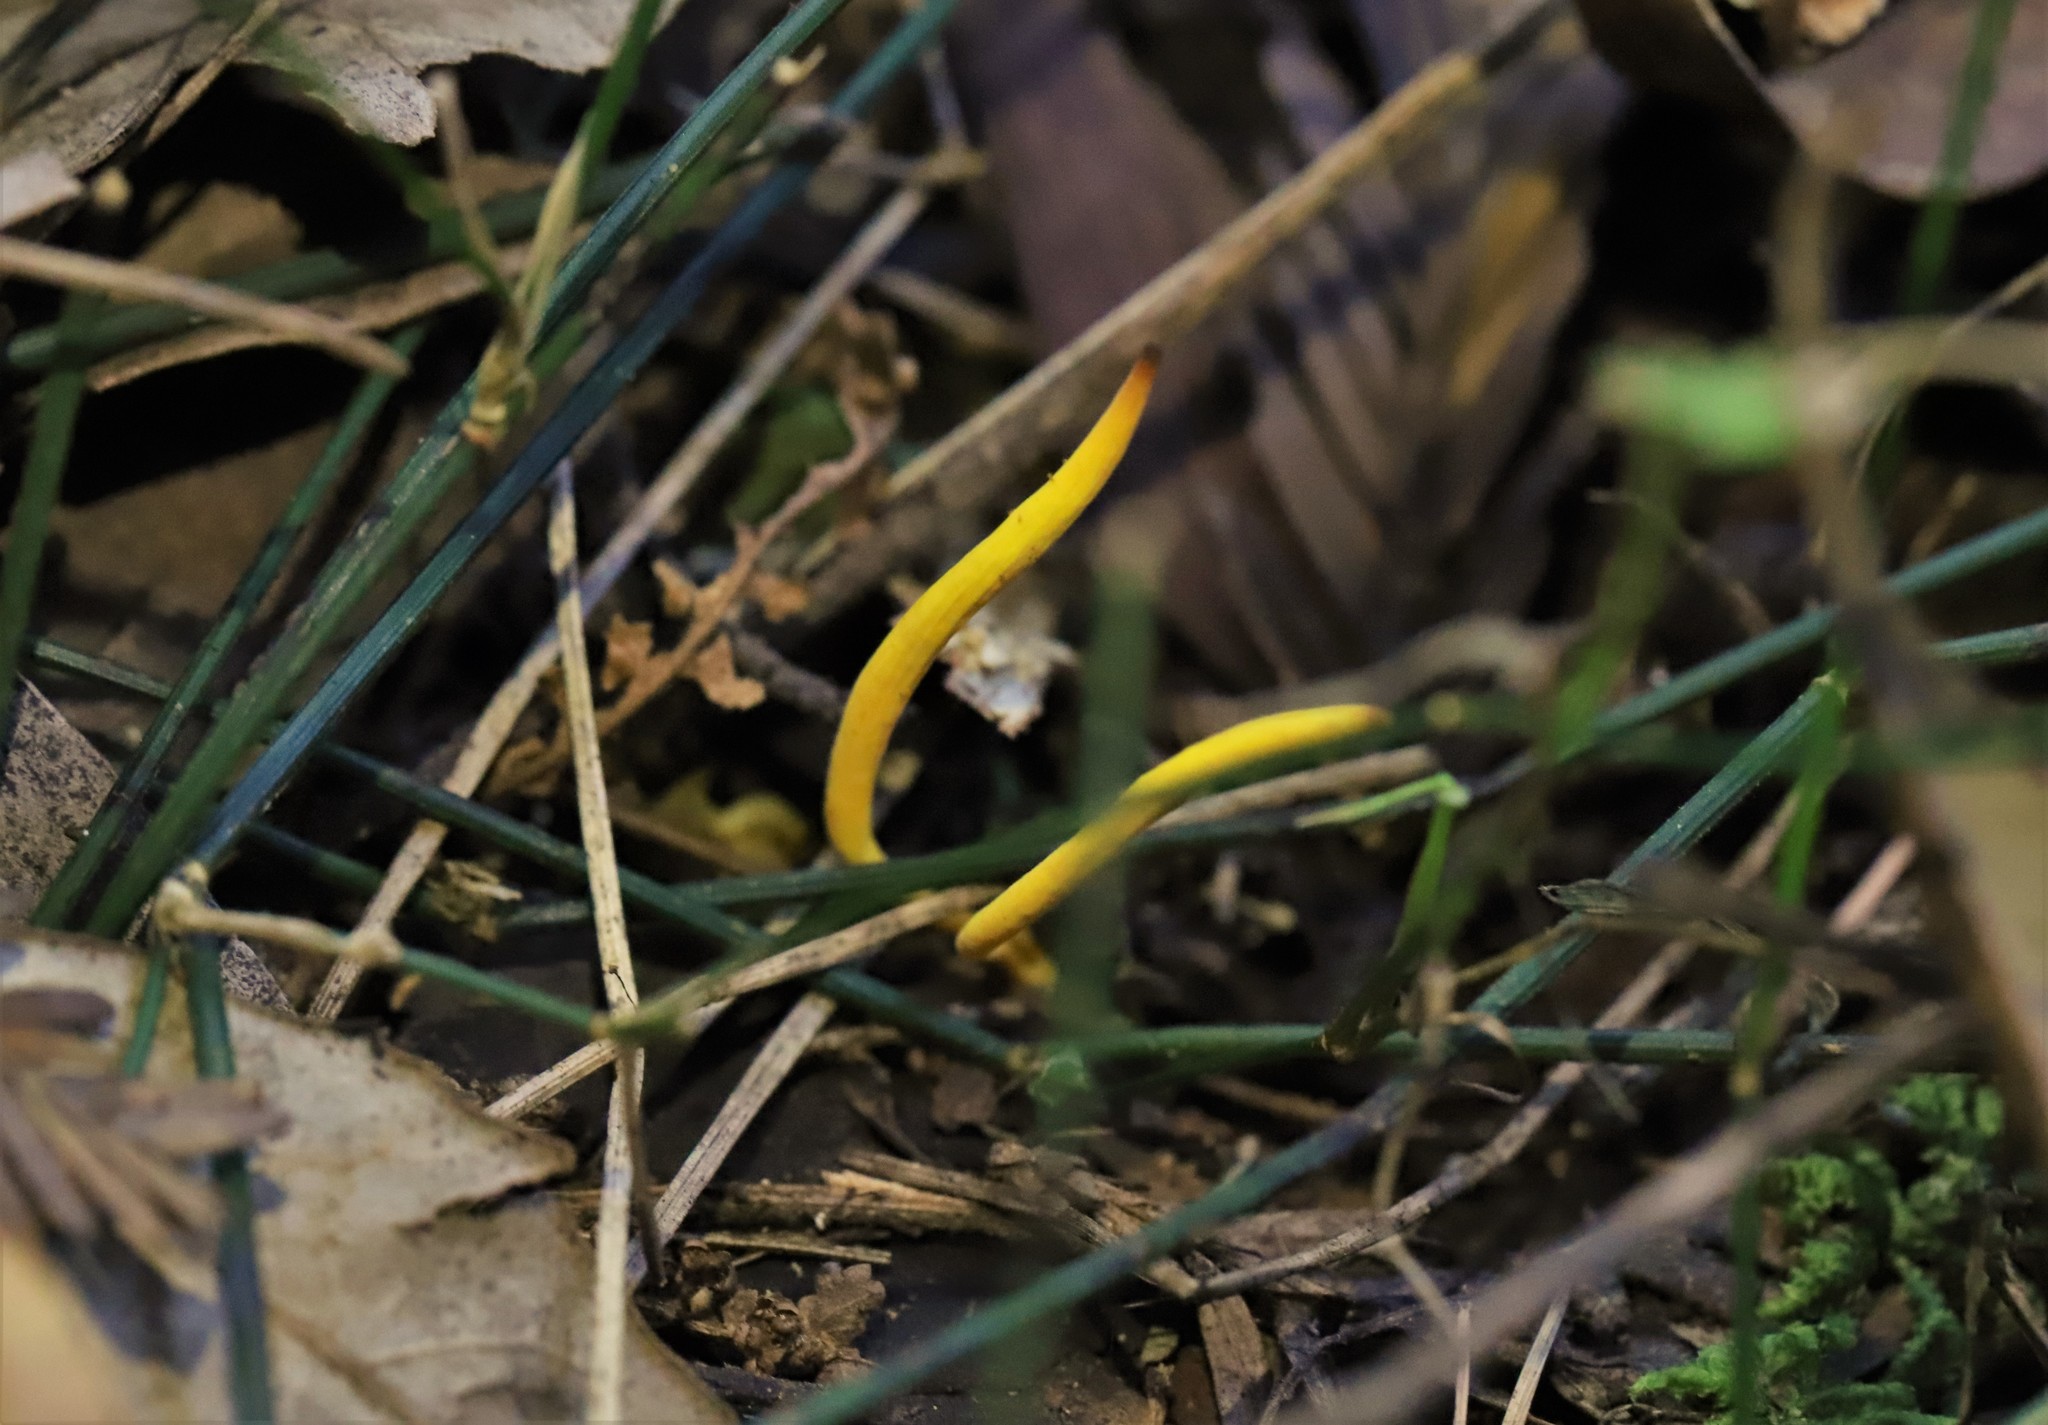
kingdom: Fungi
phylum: Basidiomycota
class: Agaricomycetes
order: Agaricales
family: Clavariaceae
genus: Clavulinopsis
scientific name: Clavulinopsis amoena
